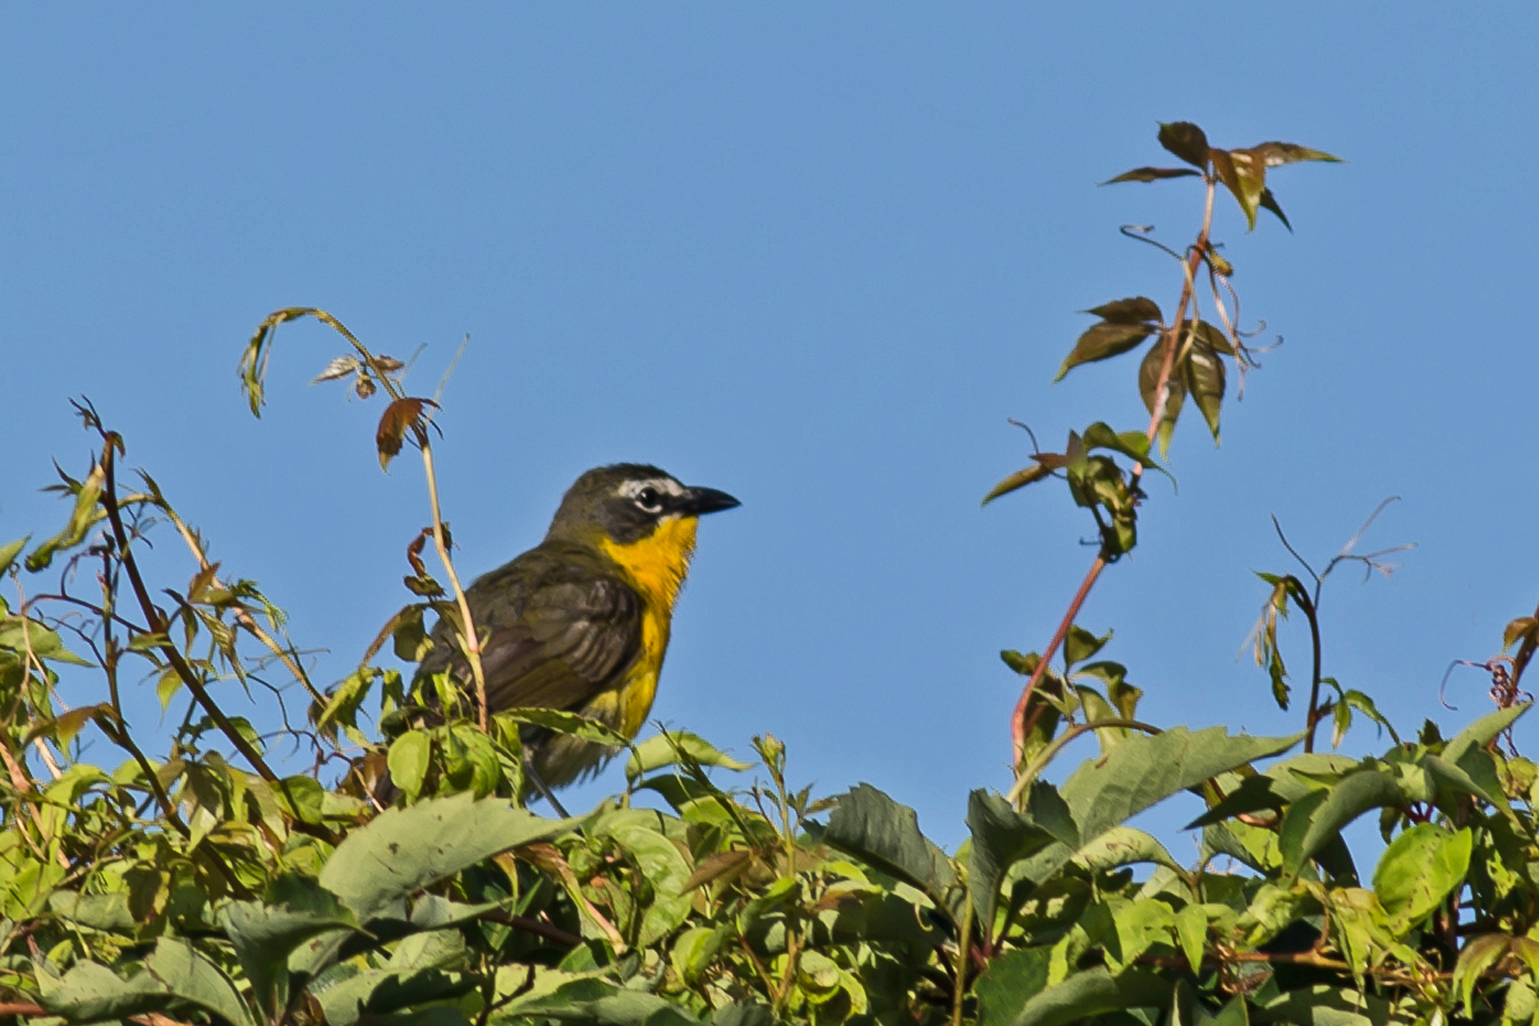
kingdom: Animalia
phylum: Chordata
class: Aves
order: Passeriformes
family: Parulidae
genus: Icteria
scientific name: Icteria virens
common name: Yellow-breasted chat
